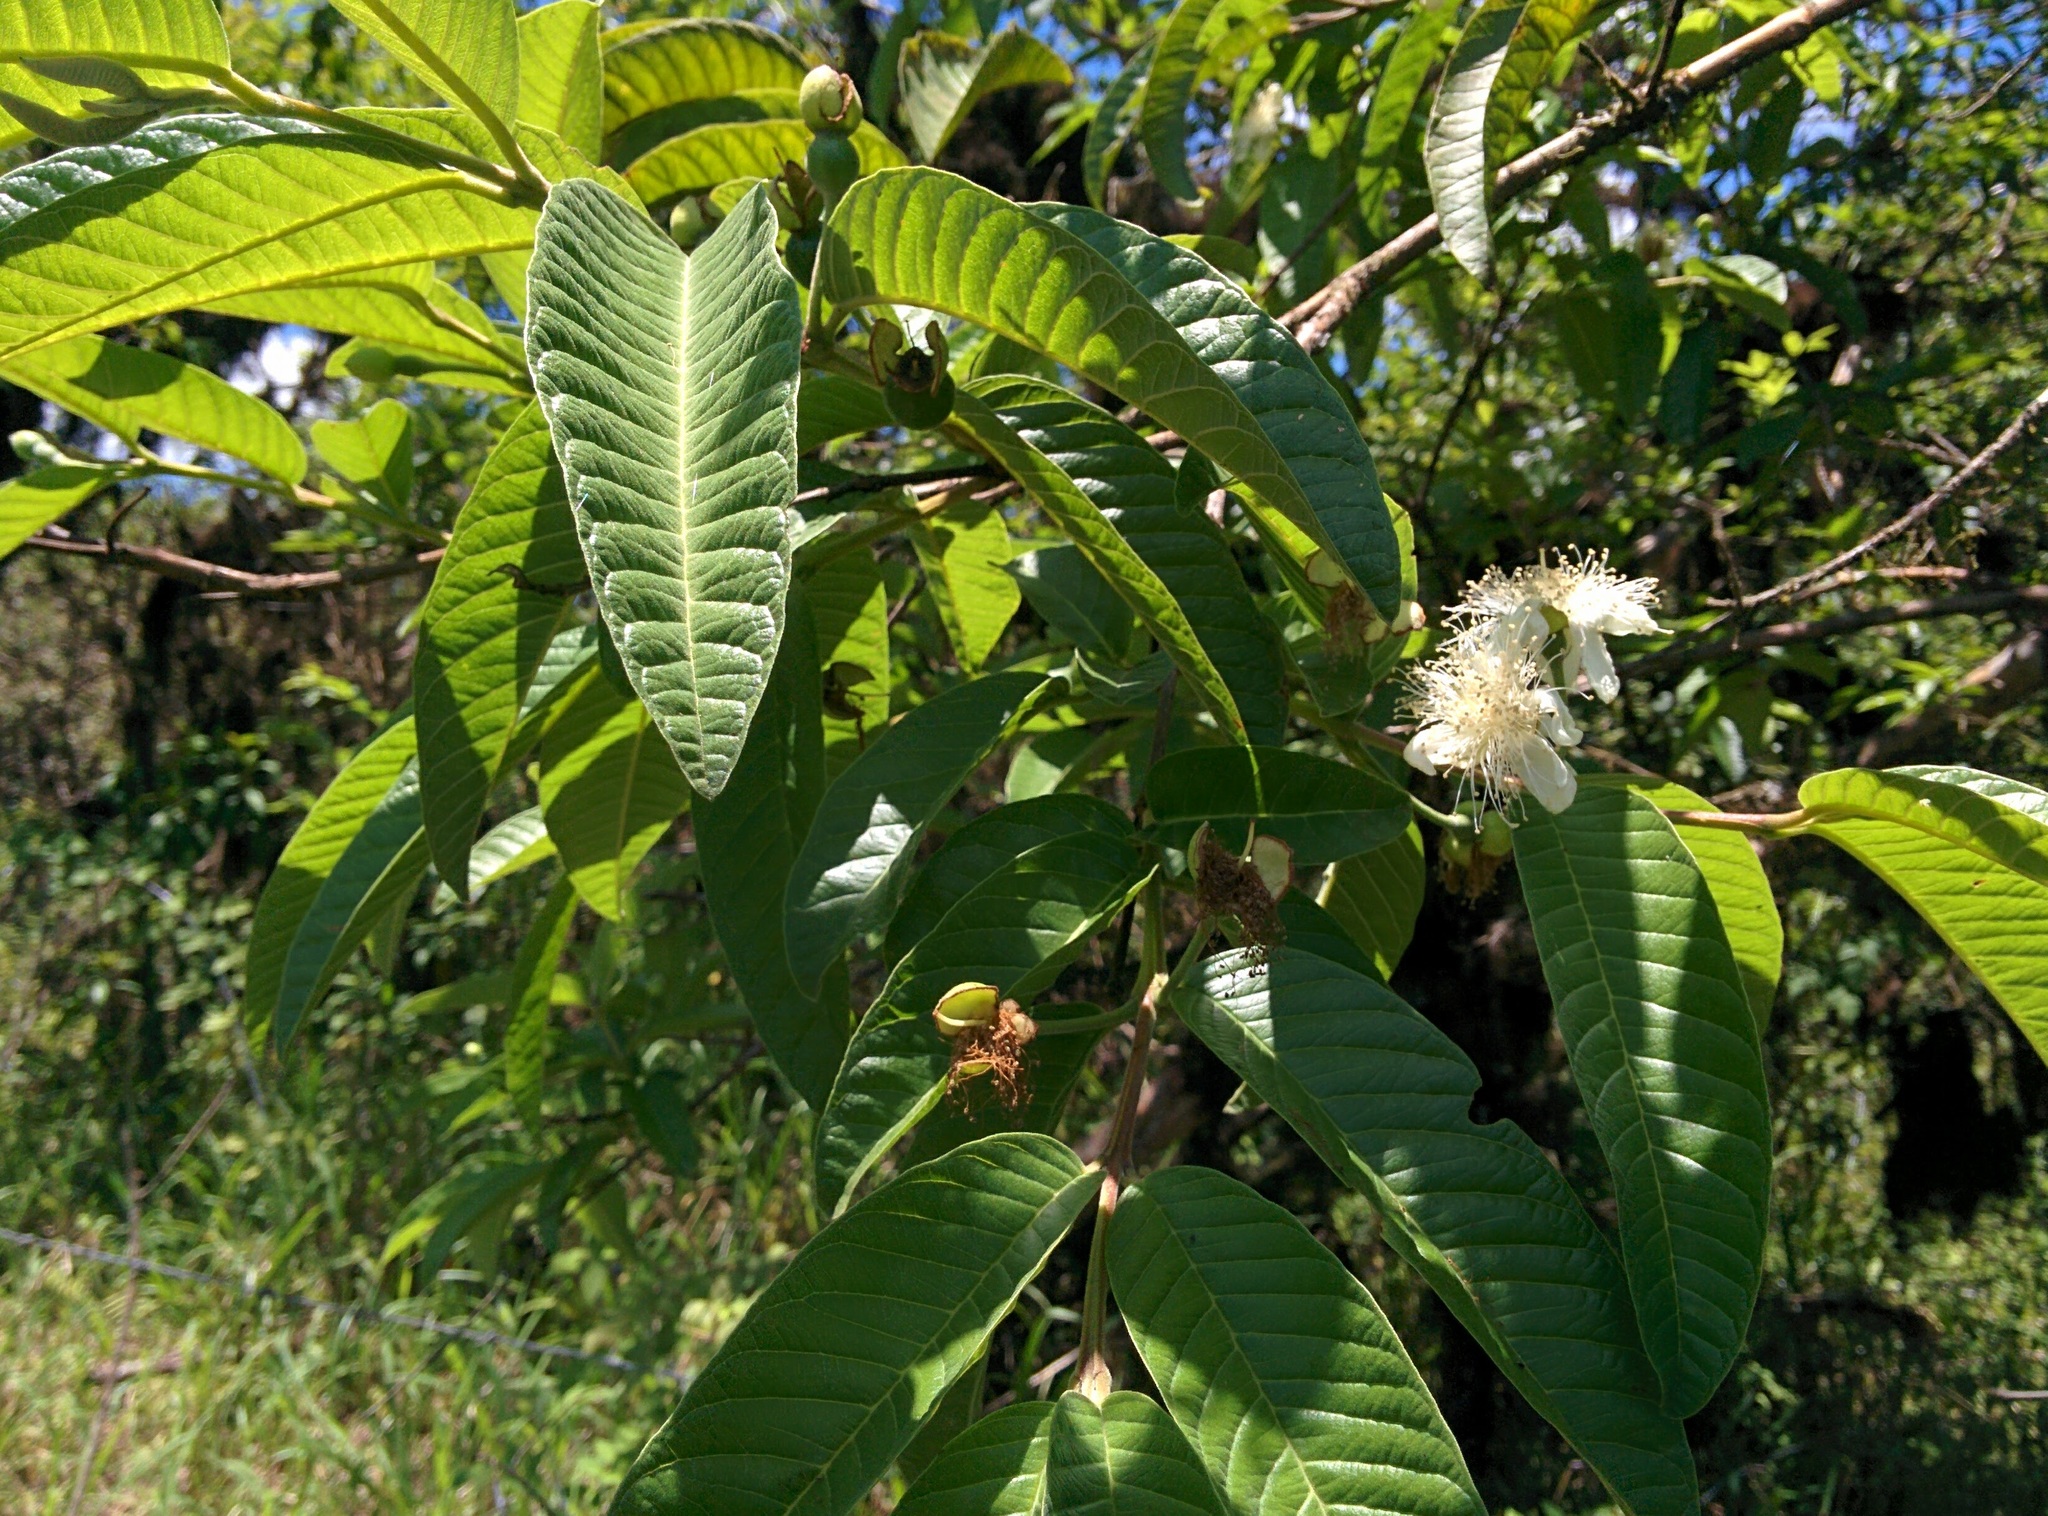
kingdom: Plantae
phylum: Tracheophyta
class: Magnoliopsida
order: Myrtales
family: Myrtaceae
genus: Psidium
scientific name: Psidium guajava
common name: Guava
